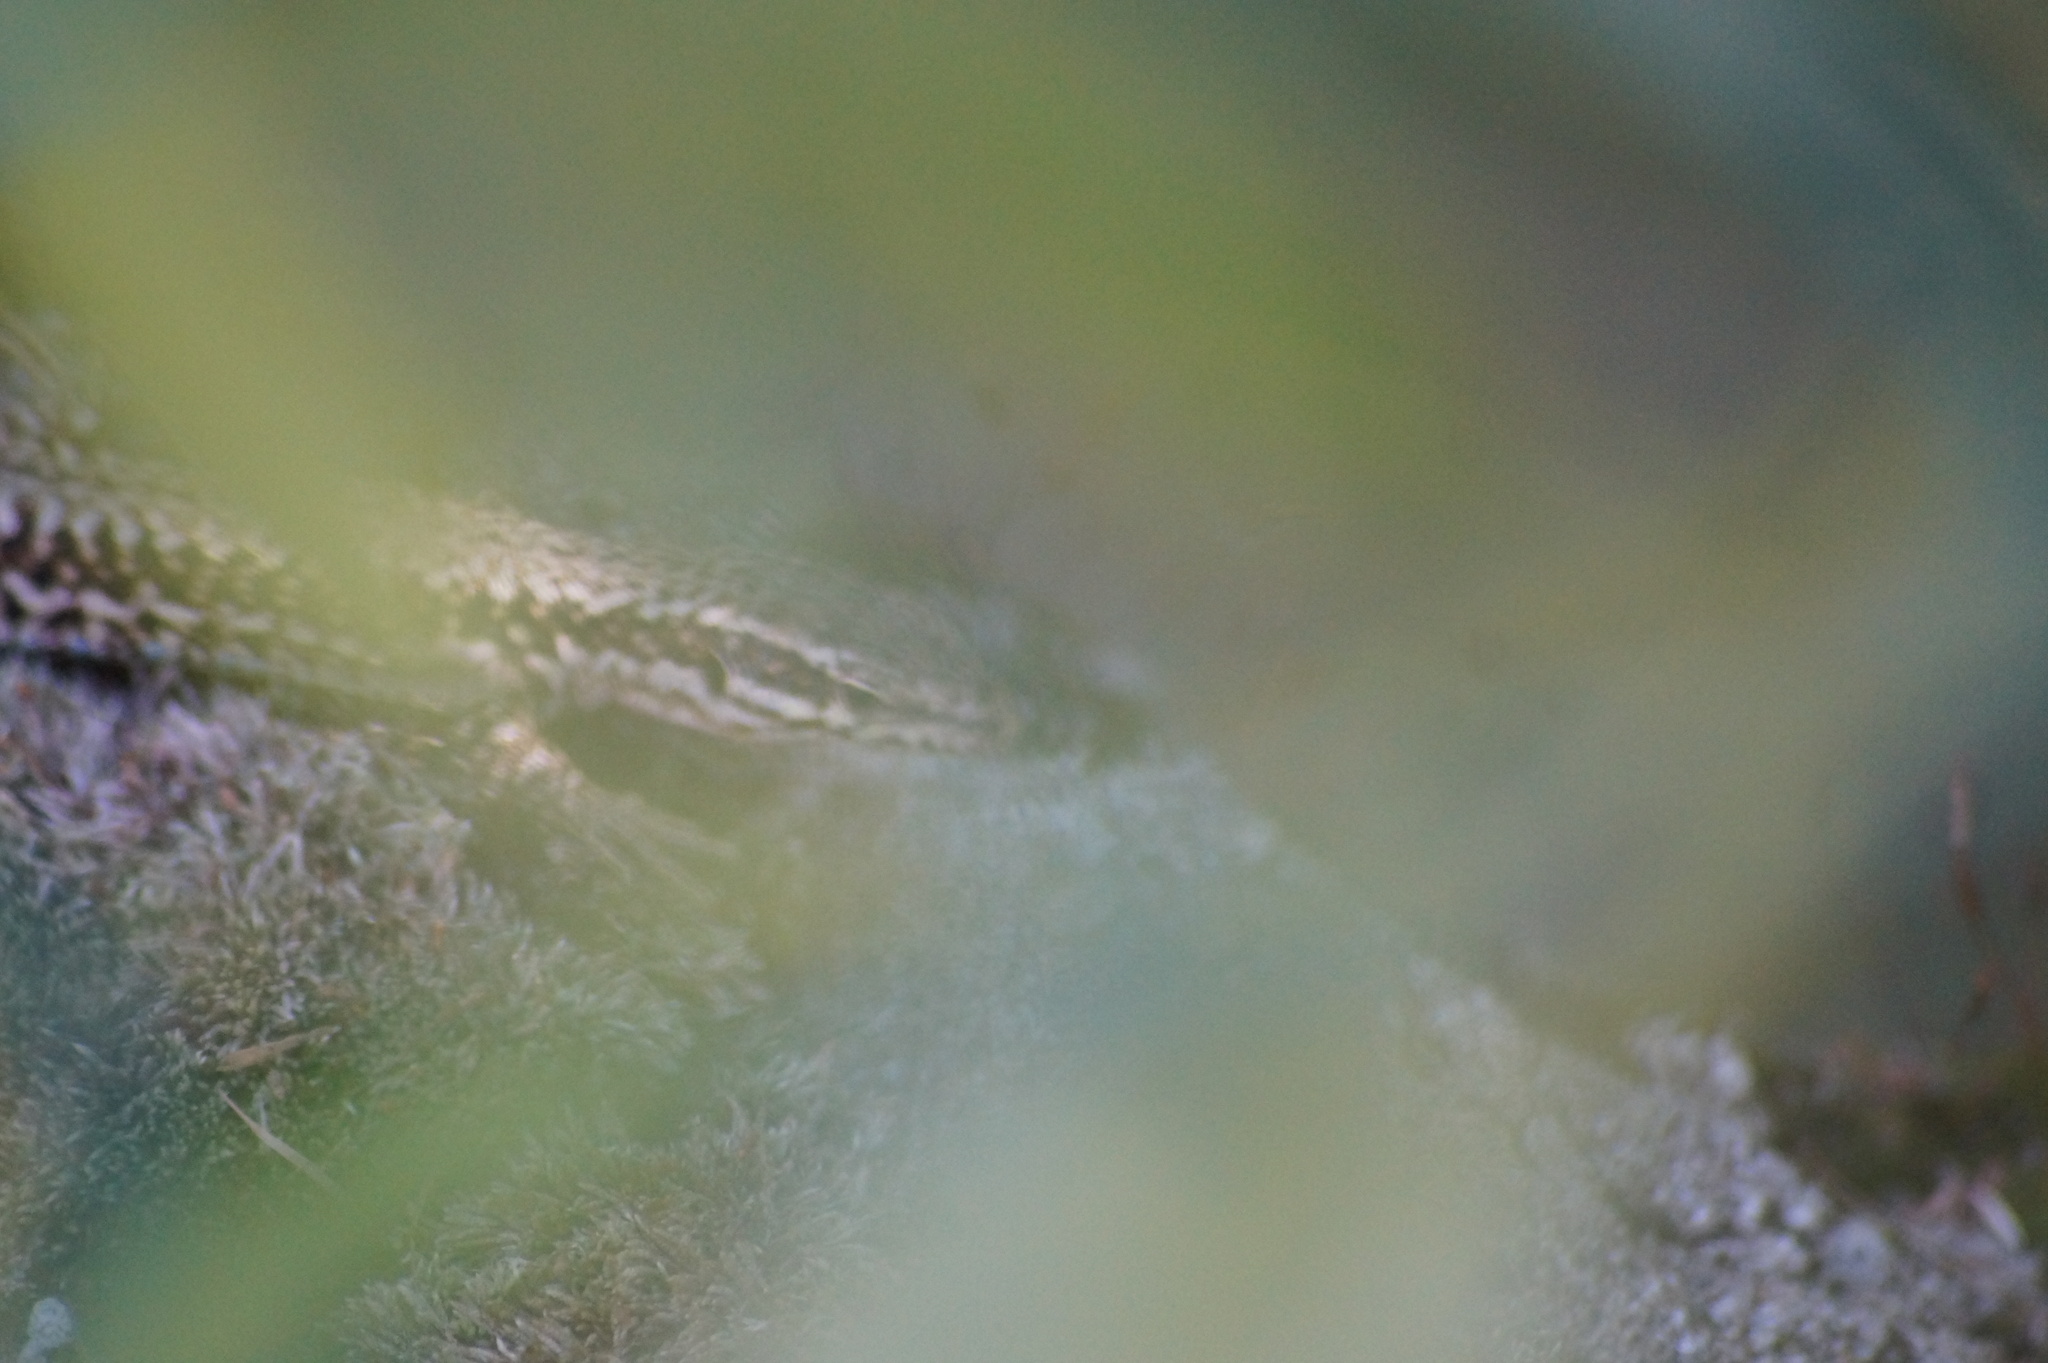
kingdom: Animalia
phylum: Chordata
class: Squamata
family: Lacertidae
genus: Podarcis
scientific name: Podarcis muralis
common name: Common wall lizard
